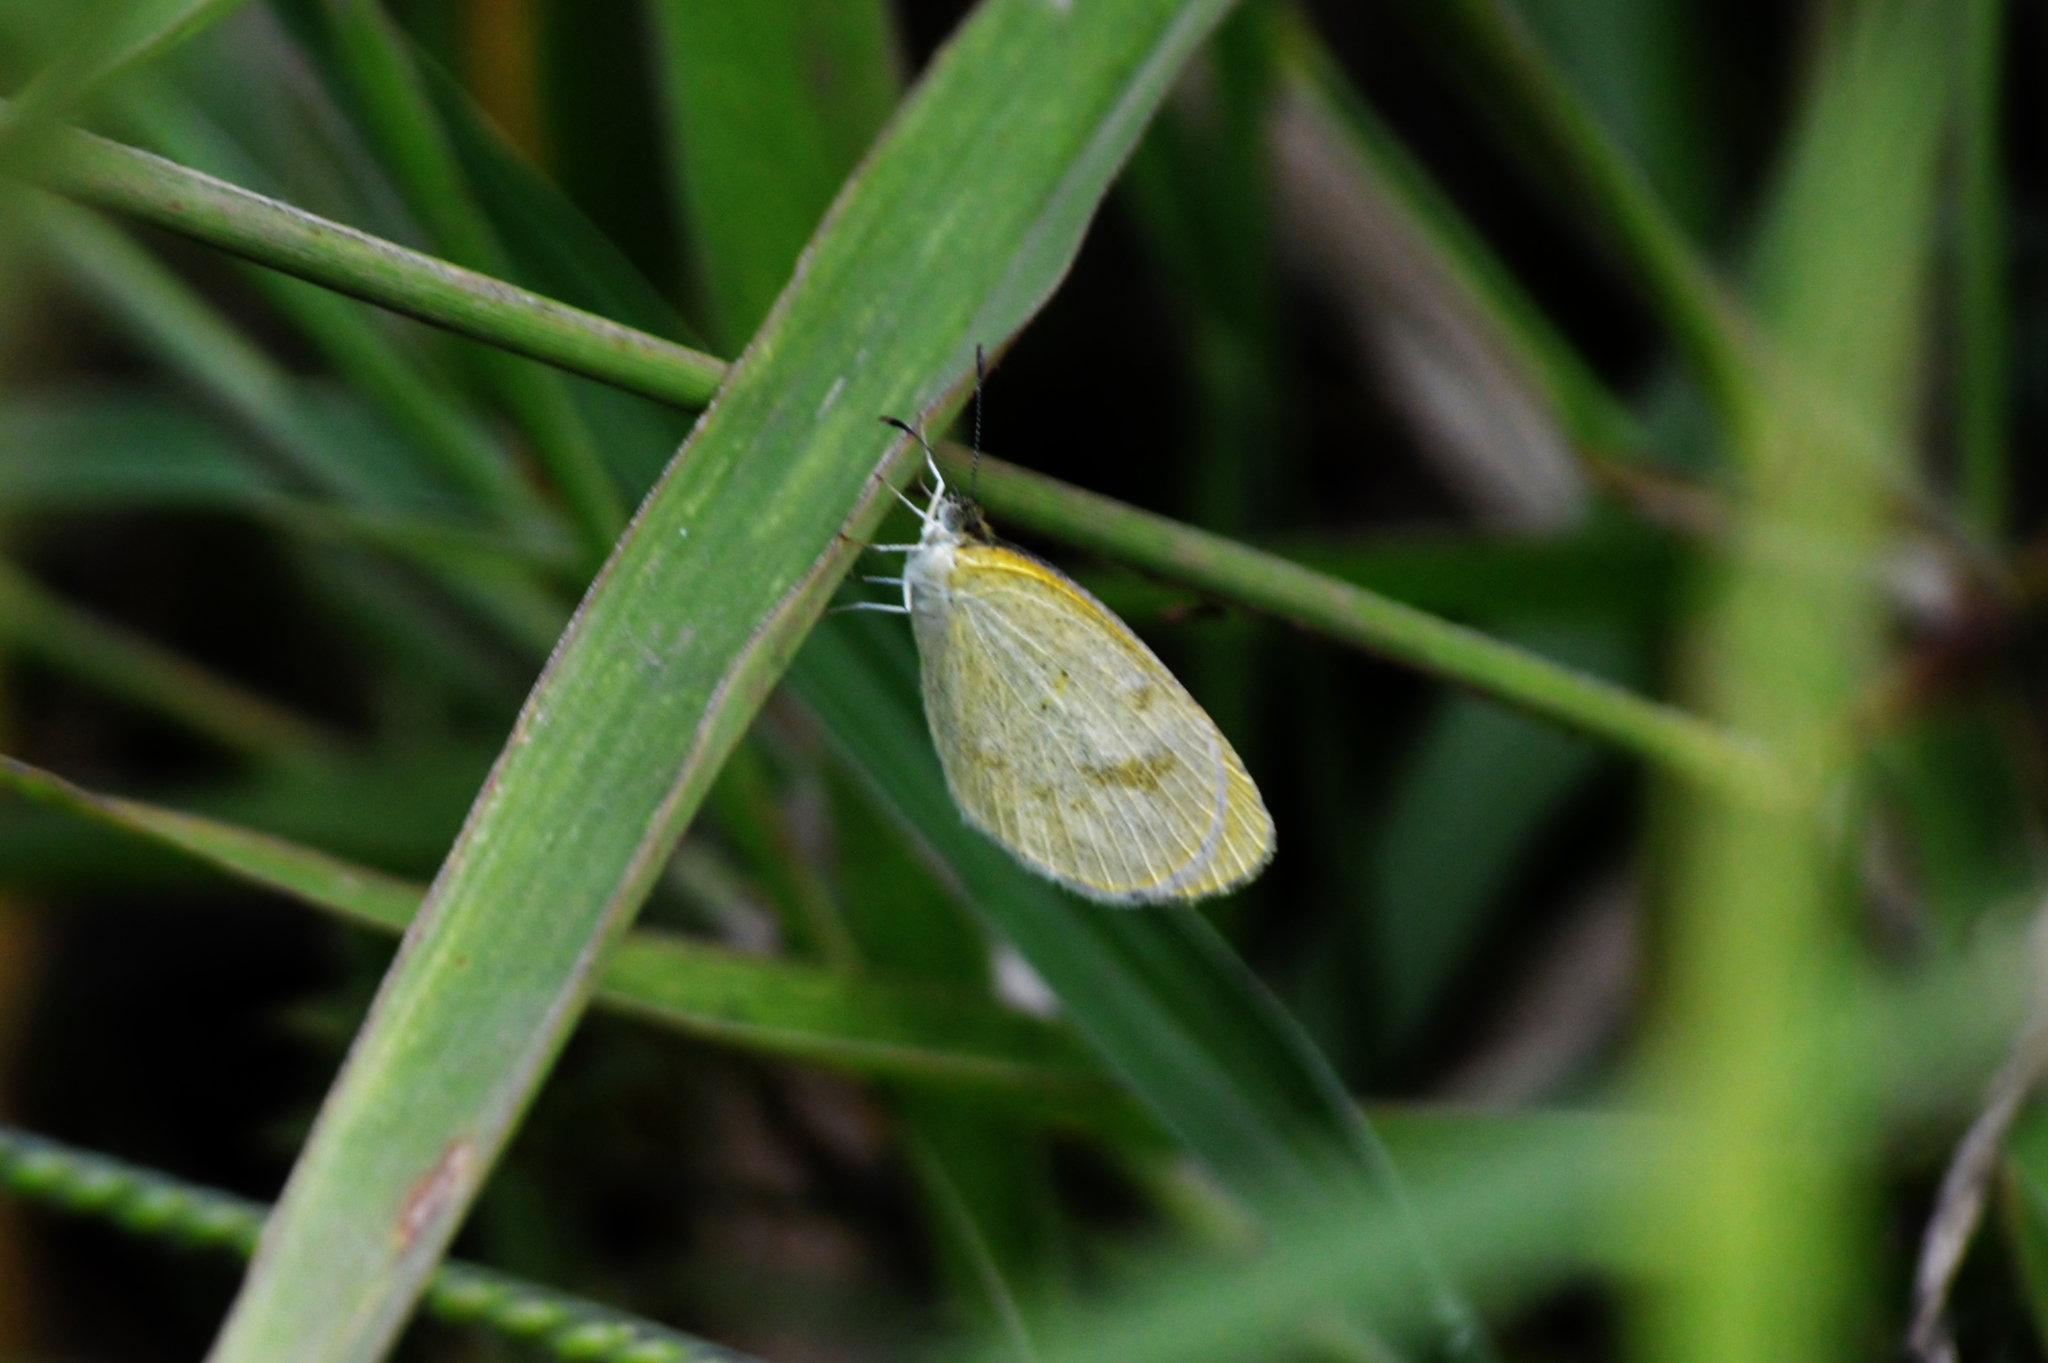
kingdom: Animalia
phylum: Arthropoda
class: Insecta
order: Lepidoptera
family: Pieridae
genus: Eurema
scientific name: Eurema elathea
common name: Banded yellow
